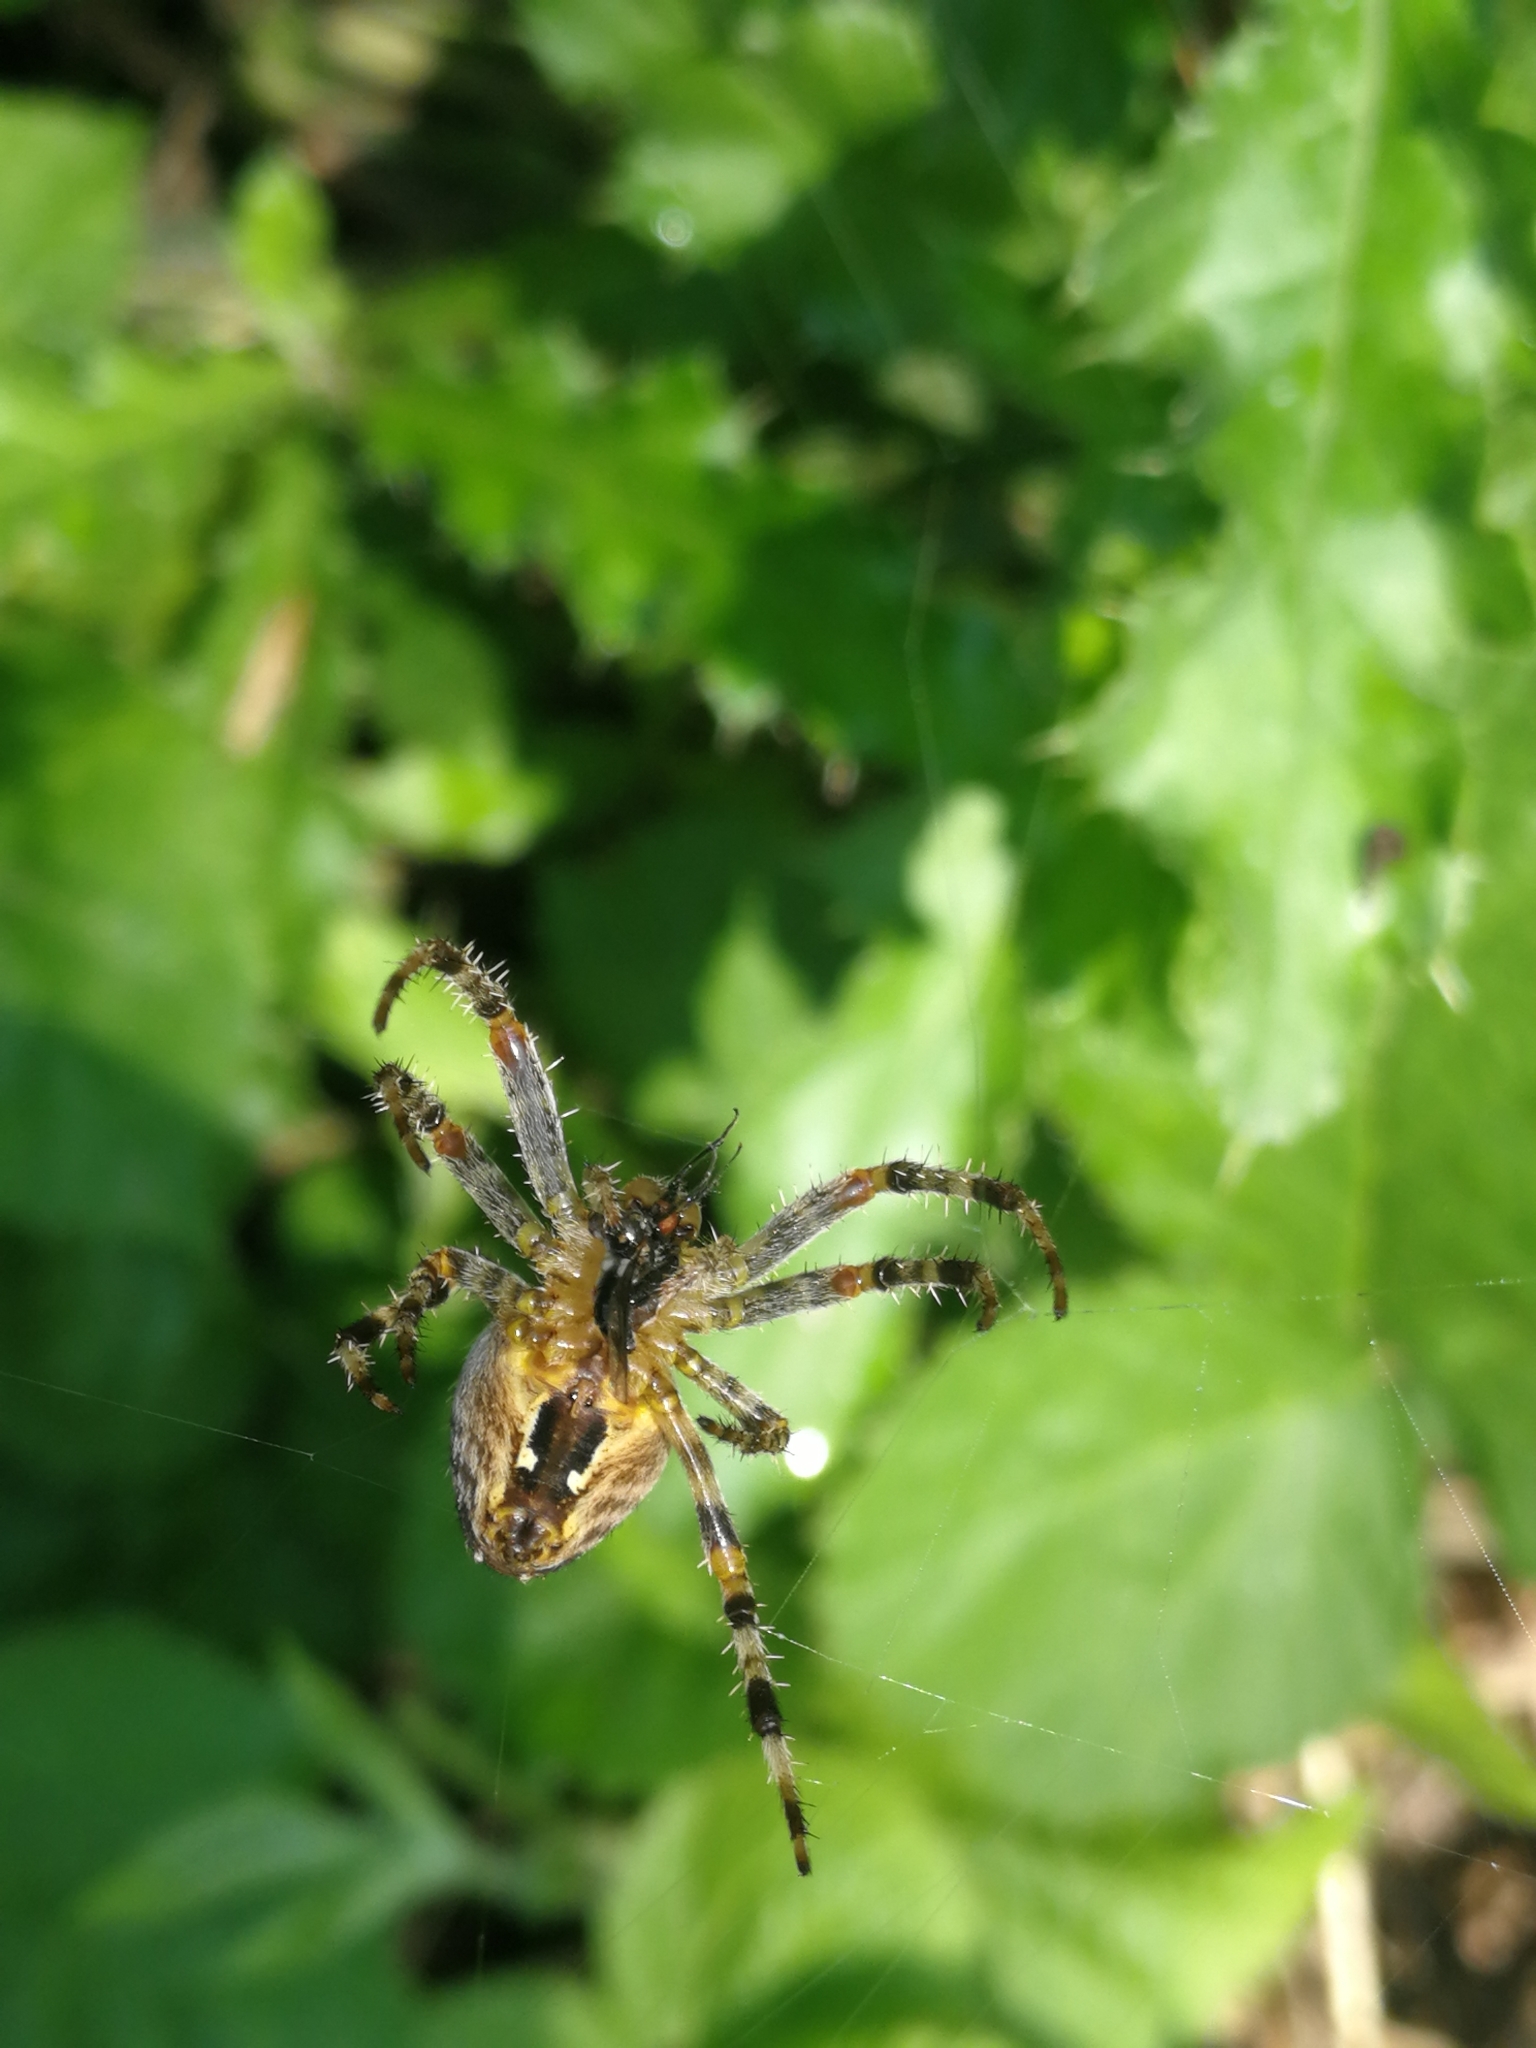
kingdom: Animalia
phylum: Arthropoda
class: Arachnida
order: Araneae
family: Araneidae
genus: Araneus
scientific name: Araneus diadematus
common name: Cross orbweaver
